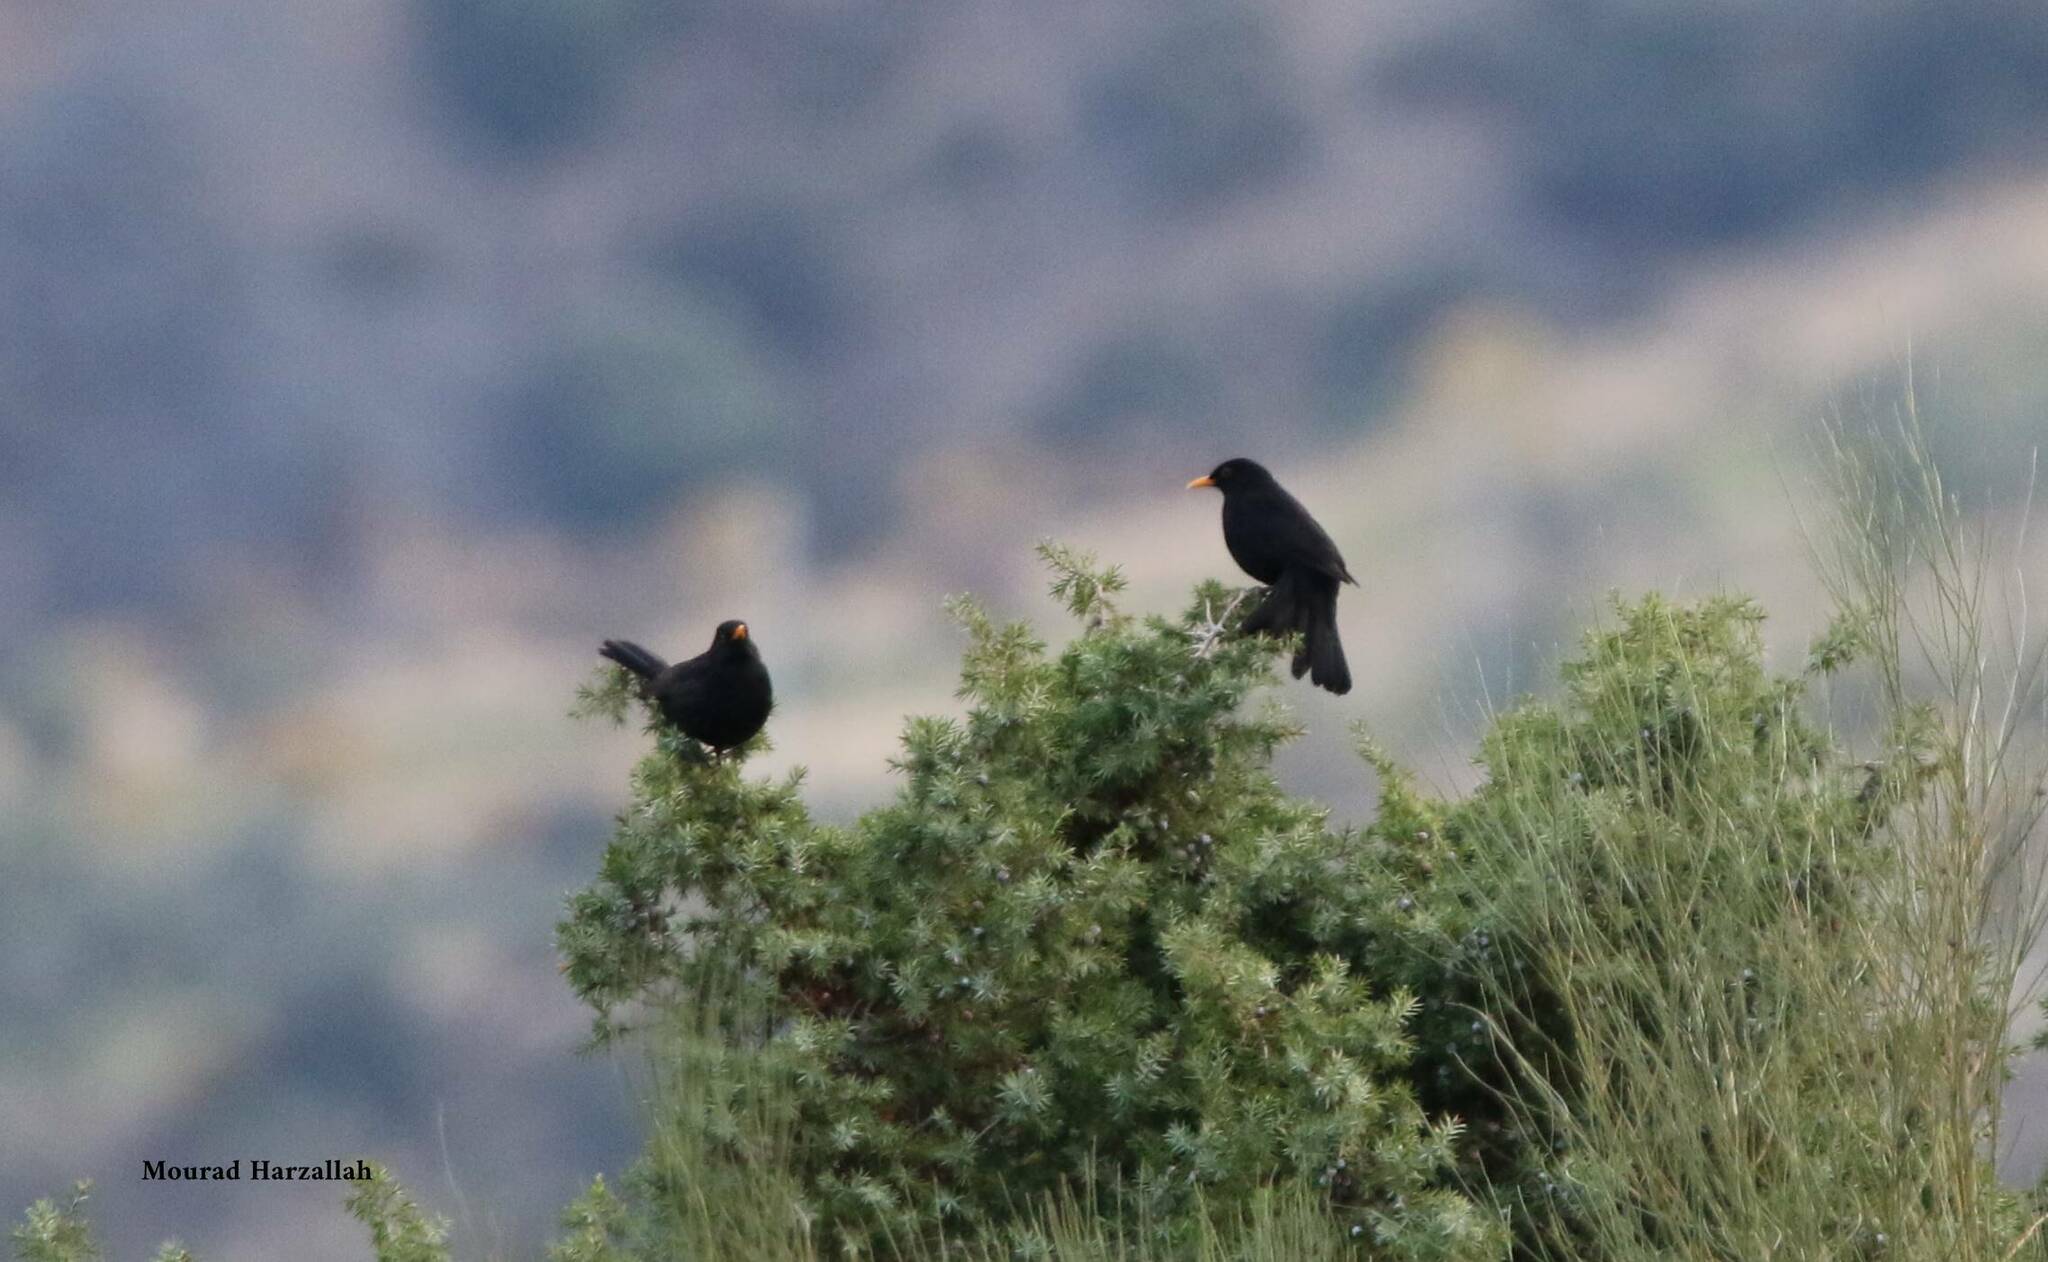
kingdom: Animalia
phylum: Chordata
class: Aves
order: Passeriformes
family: Turdidae
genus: Turdus
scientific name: Turdus merula
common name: Common blackbird
